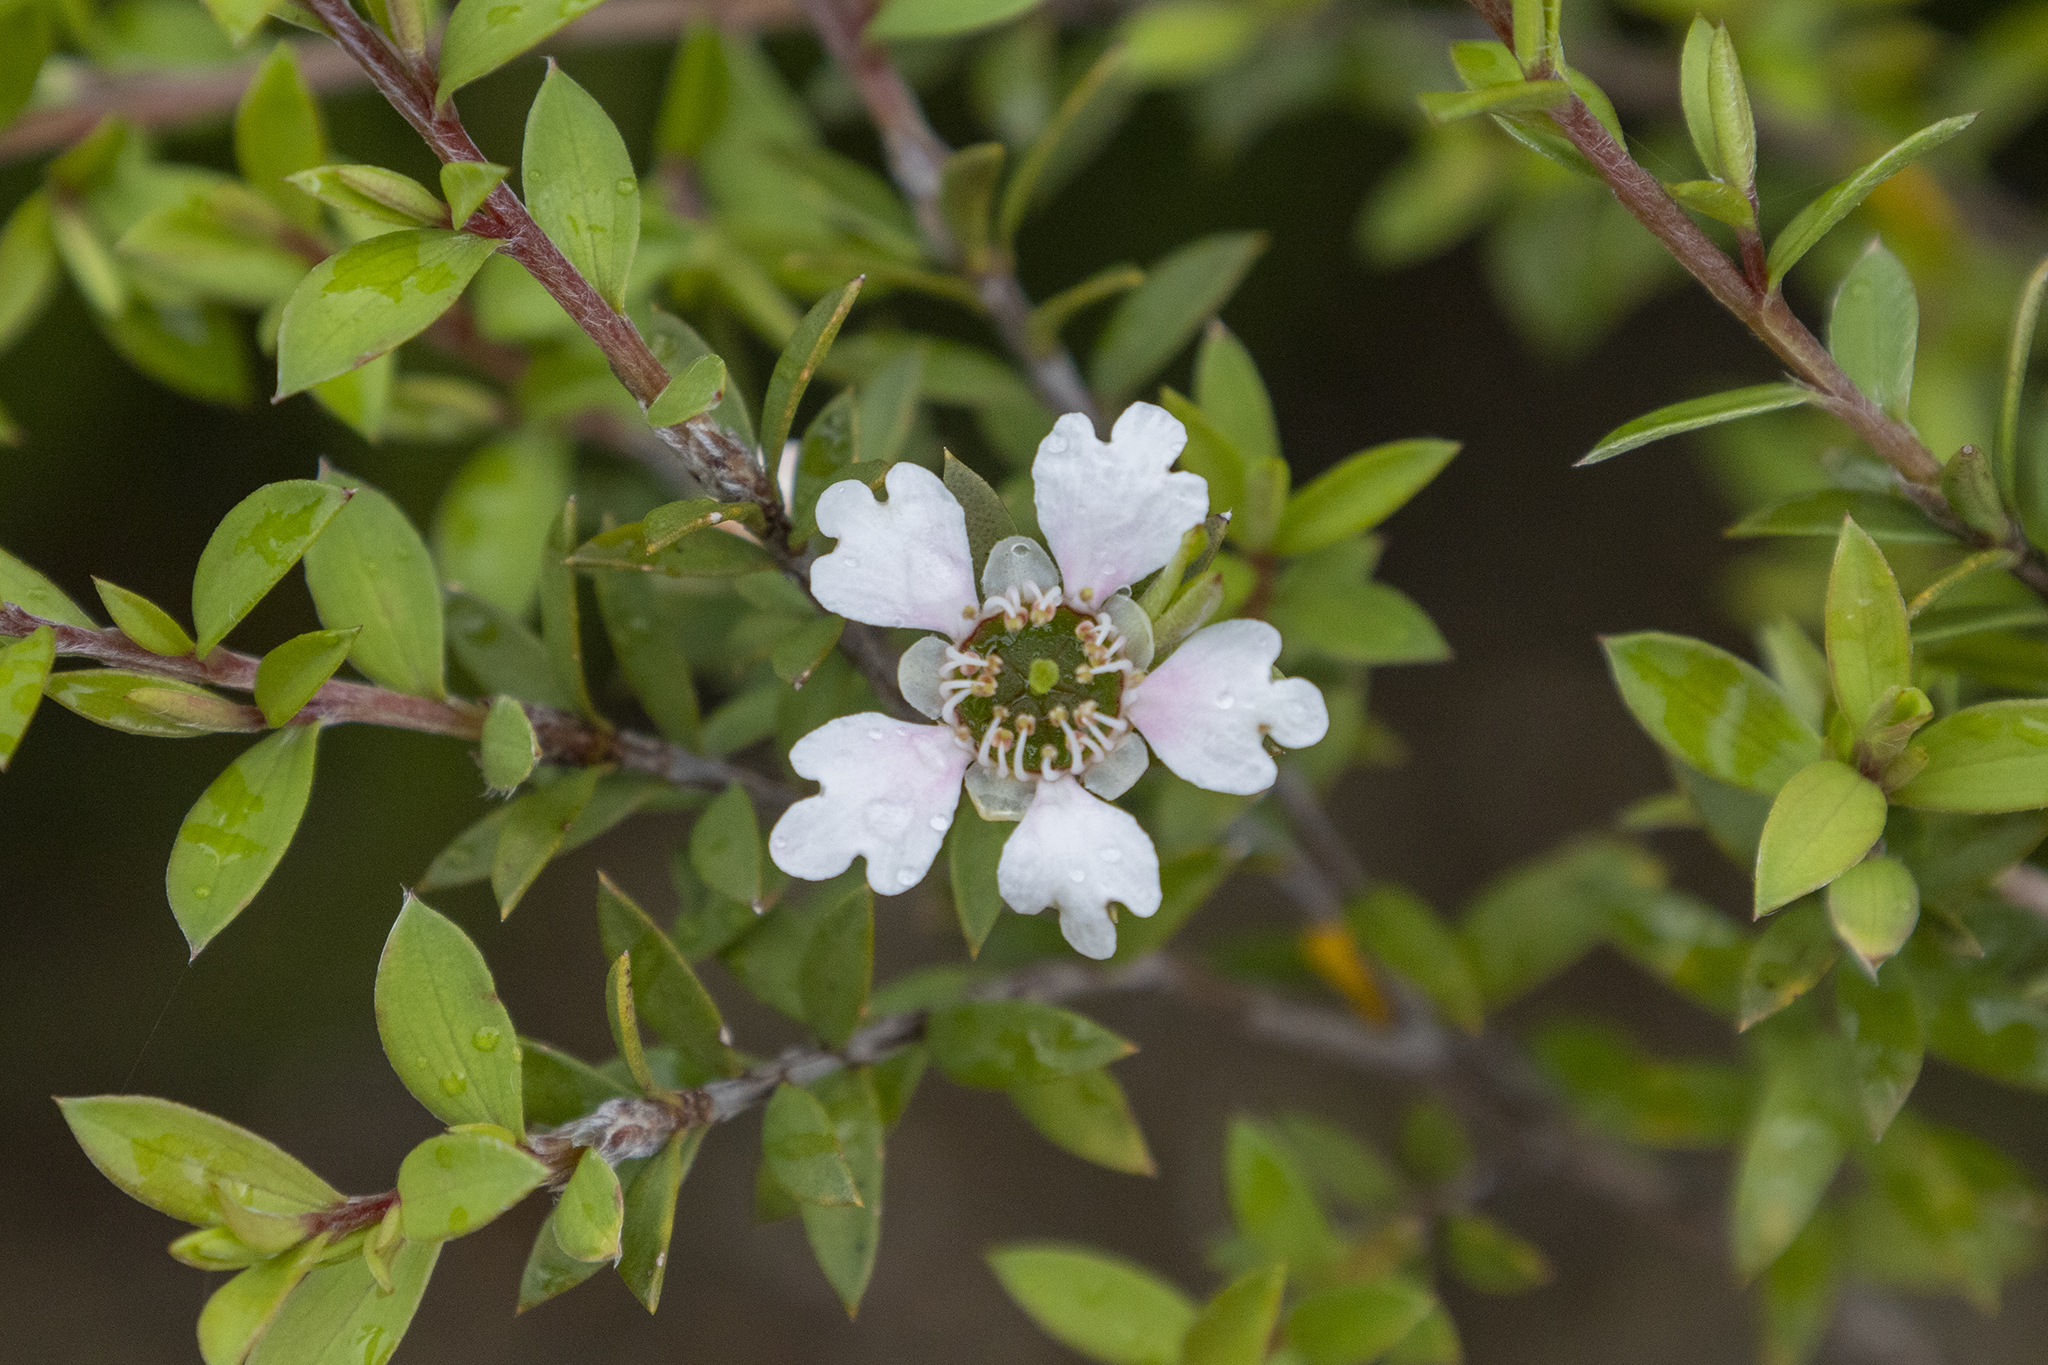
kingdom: Plantae
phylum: Tracheophyta
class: Magnoliopsida
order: Myrtales
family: Myrtaceae
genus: Leptospermum
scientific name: Leptospermum scoparium
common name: Broom tea-tree
